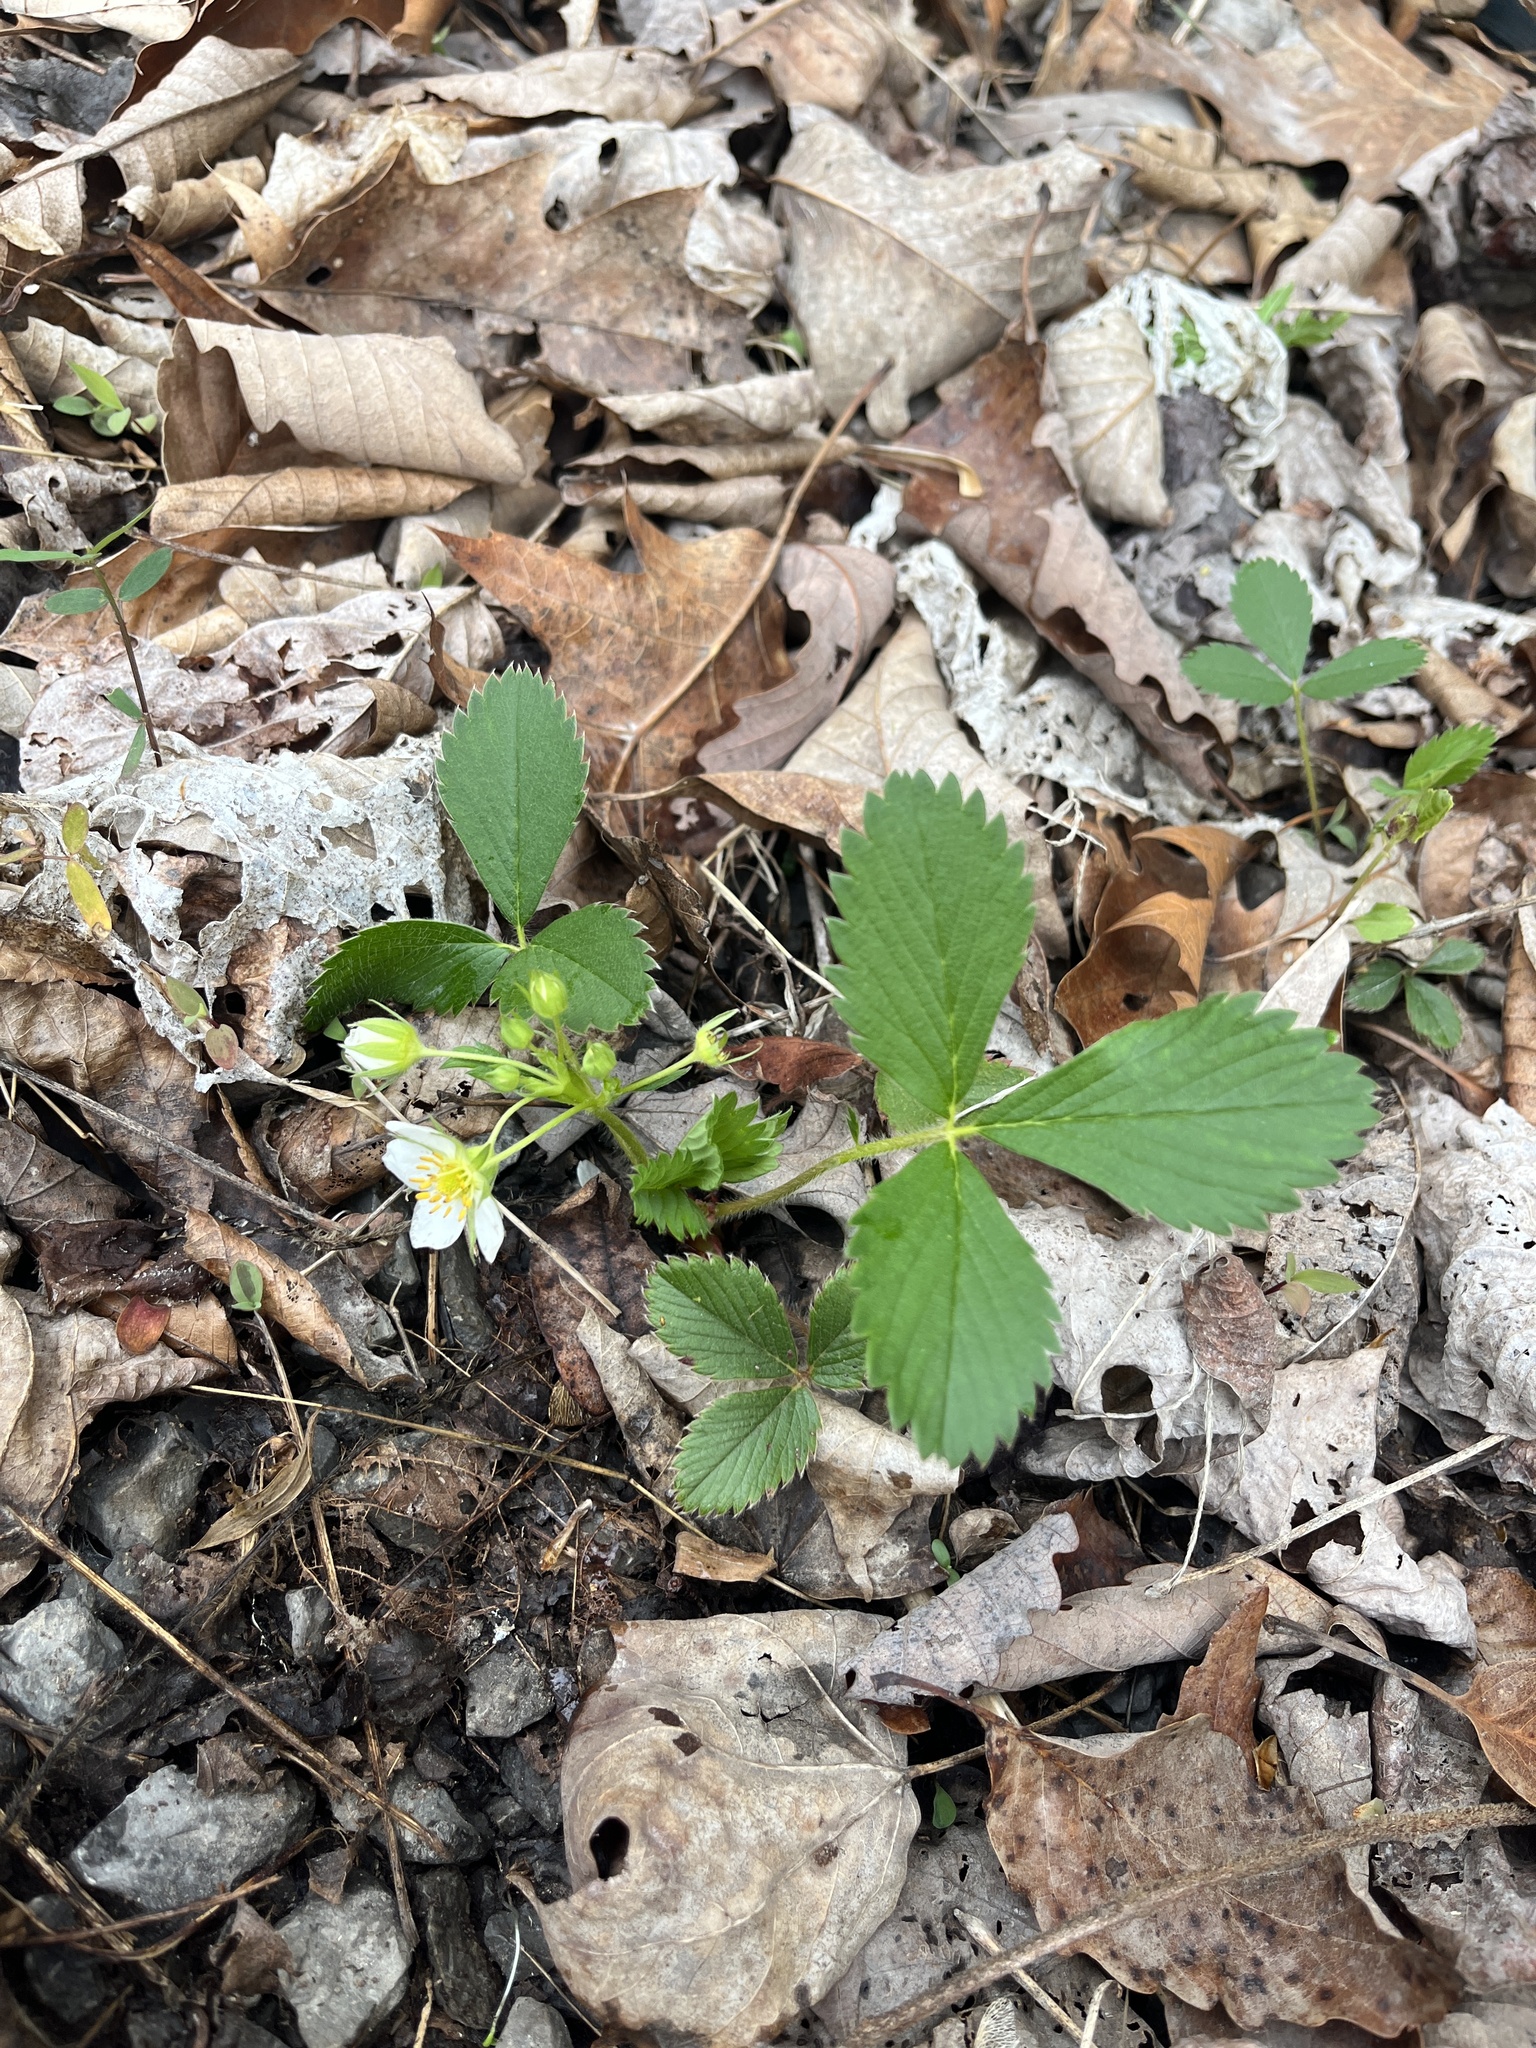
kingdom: Plantae
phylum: Tracheophyta
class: Magnoliopsida
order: Rosales
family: Rosaceae
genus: Fragaria
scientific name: Fragaria virginiana
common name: Thickleaved wild strawberry
